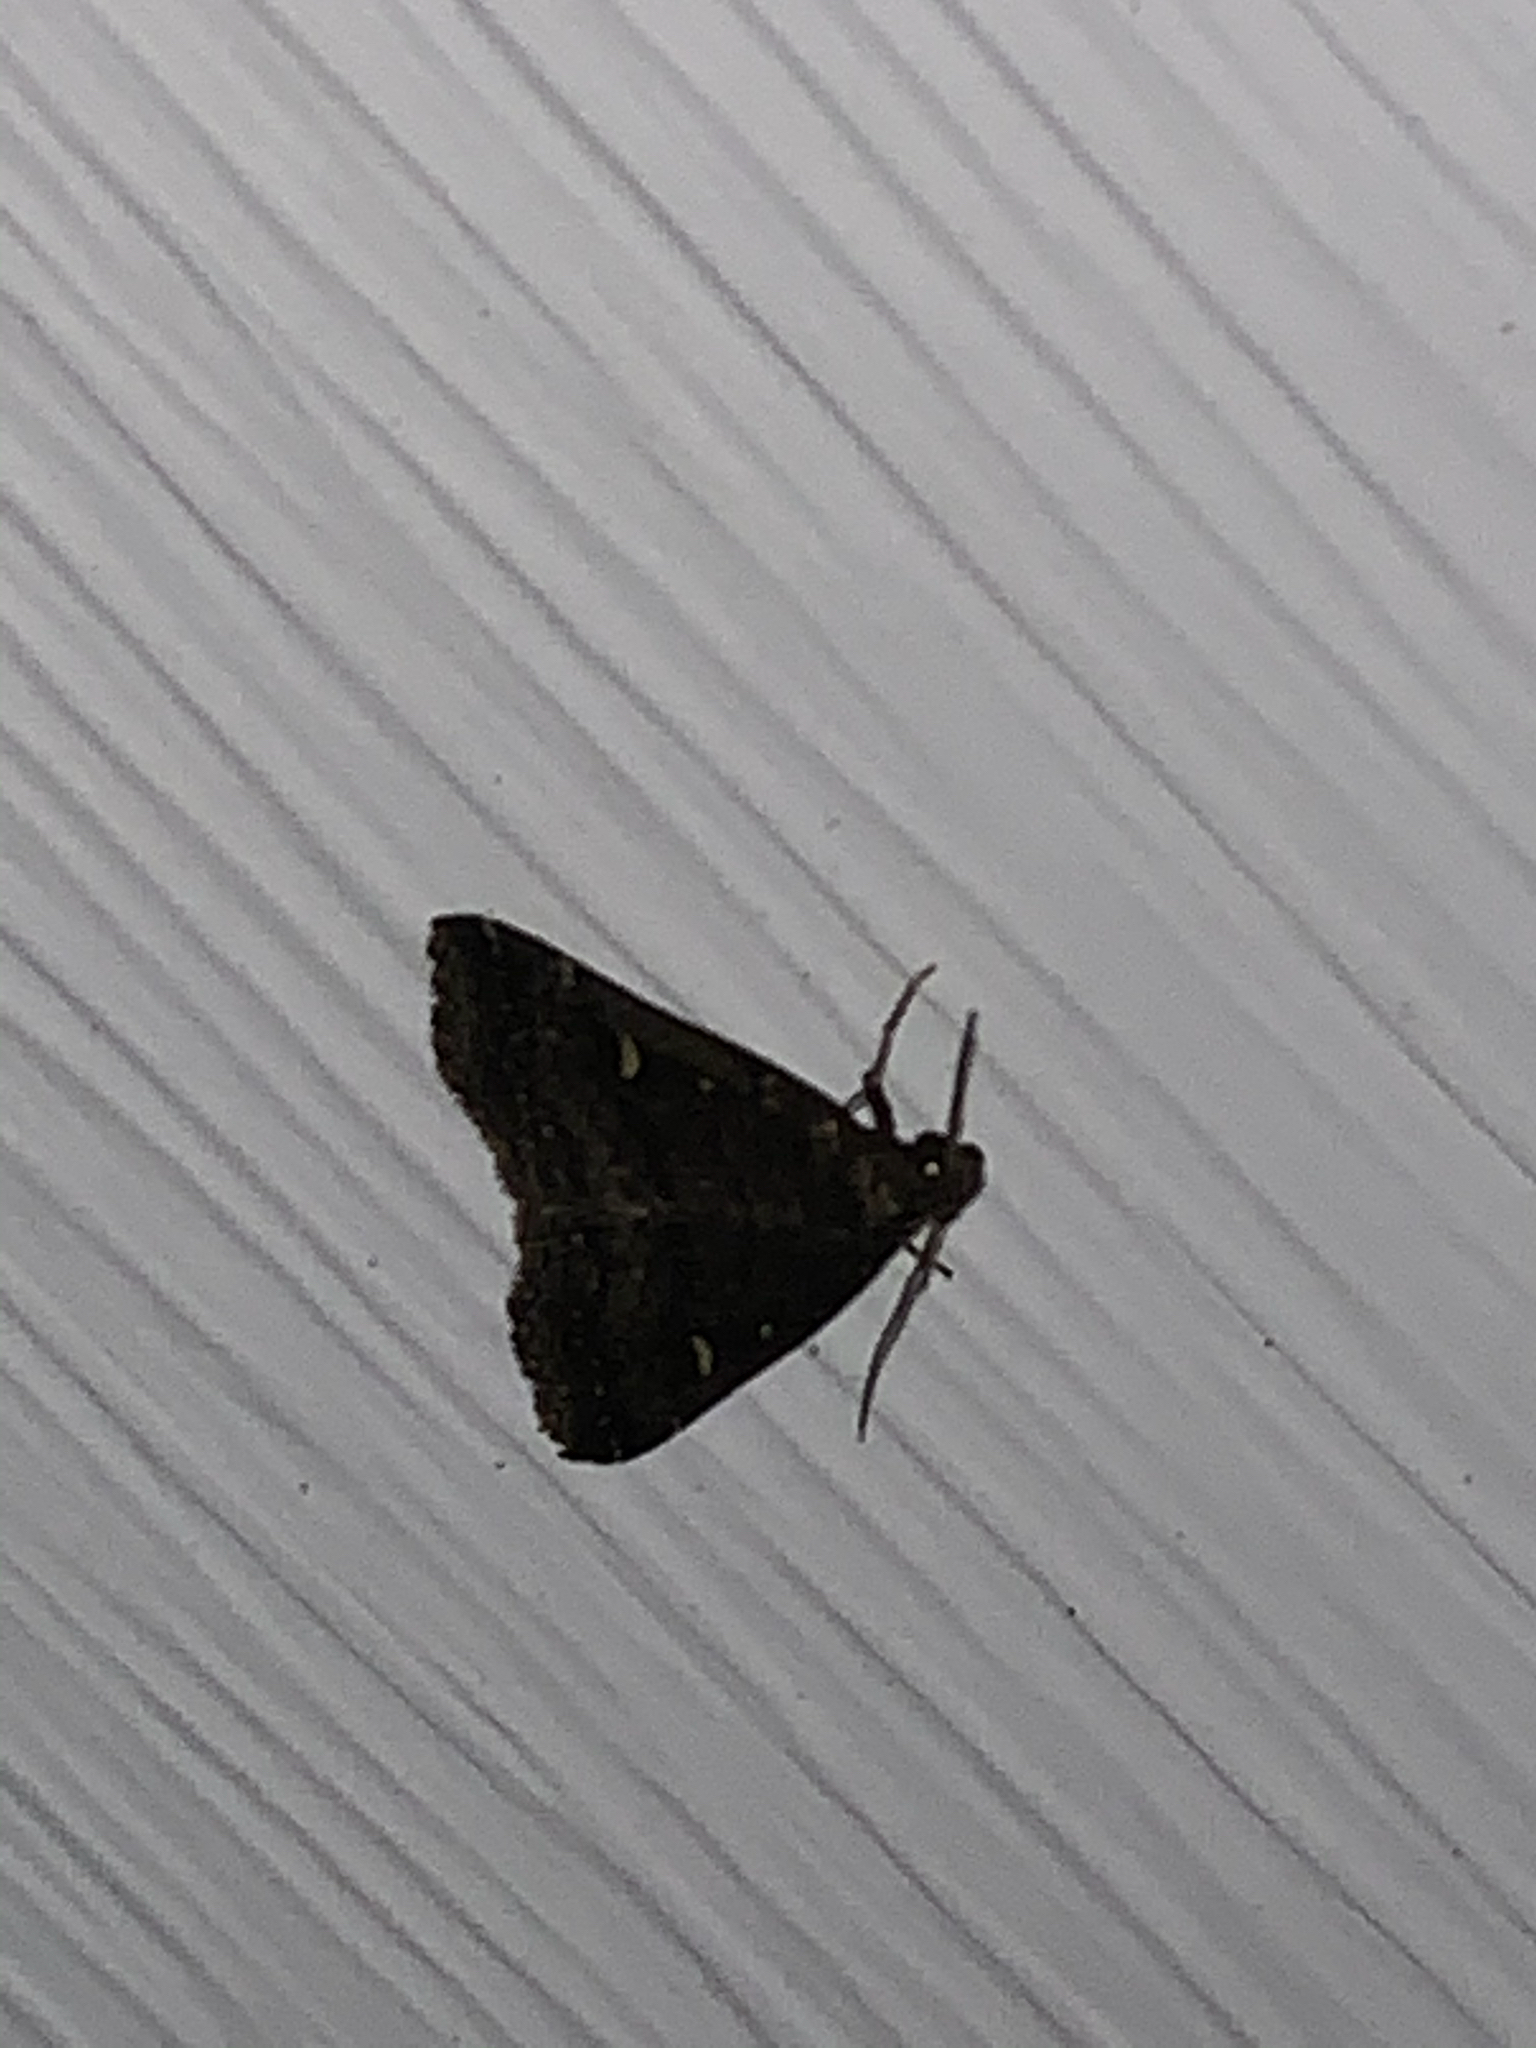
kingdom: Animalia
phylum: Arthropoda
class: Insecta
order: Lepidoptera
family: Erebidae
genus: Tetanolita
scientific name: Tetanolita mynesalis
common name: Smoky tetanolita moth
